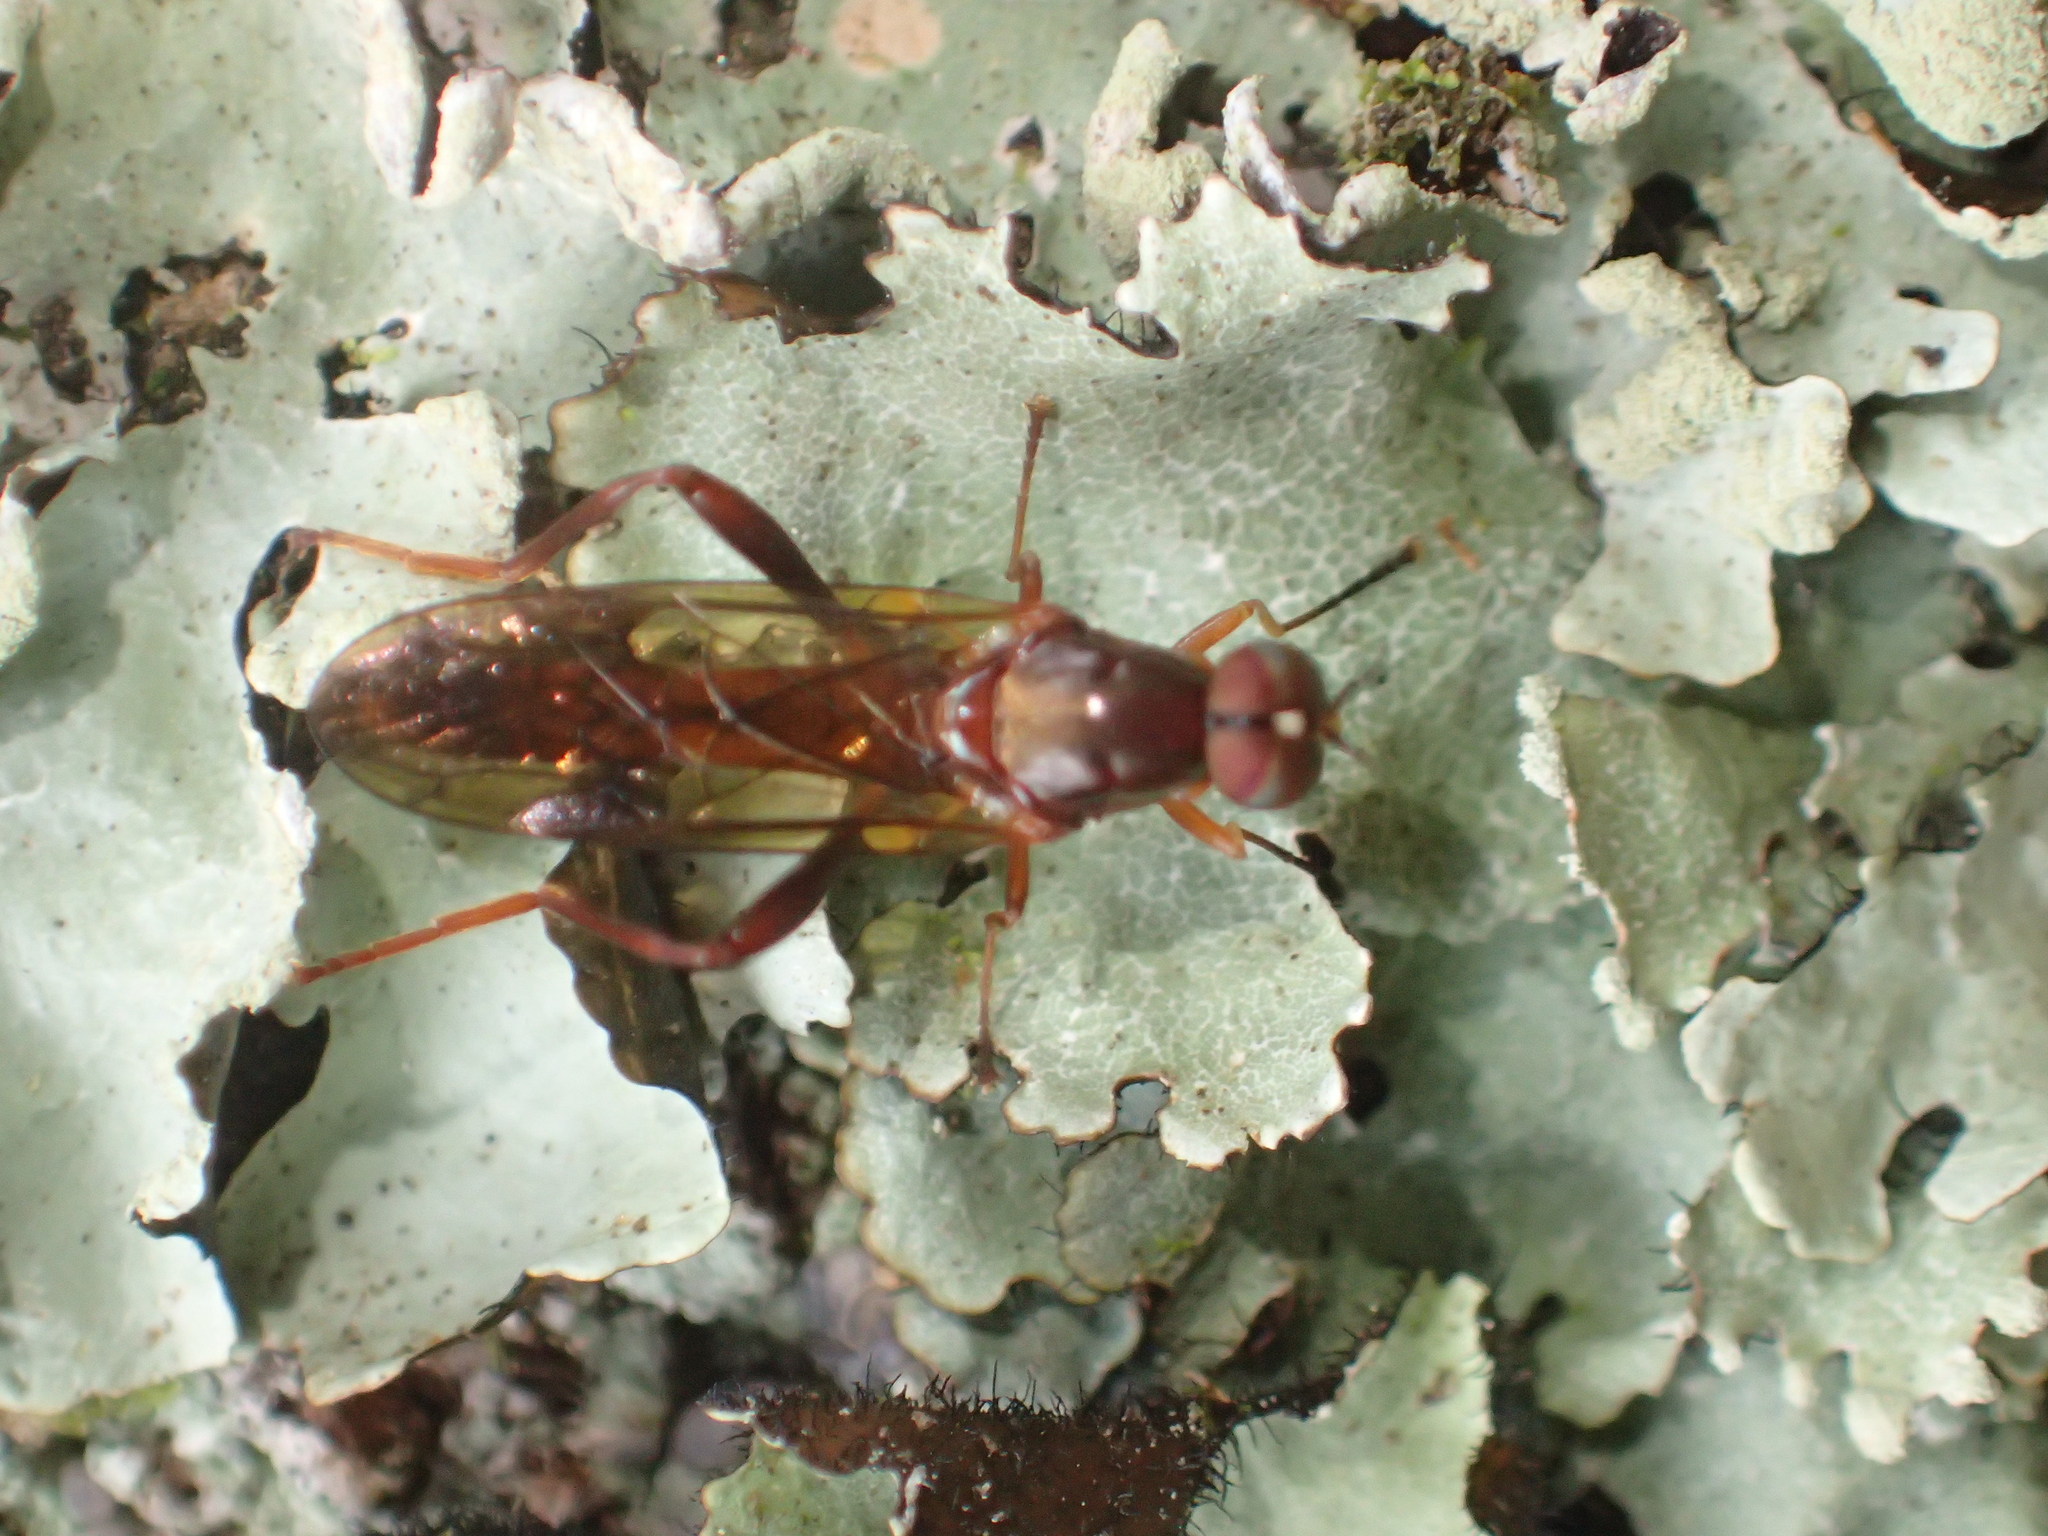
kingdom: Animalia
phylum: Arthropoda
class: Insecta
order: Diptera
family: Stratiomyidae
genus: Benhamyia
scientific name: Benhamyia straznitzkii
